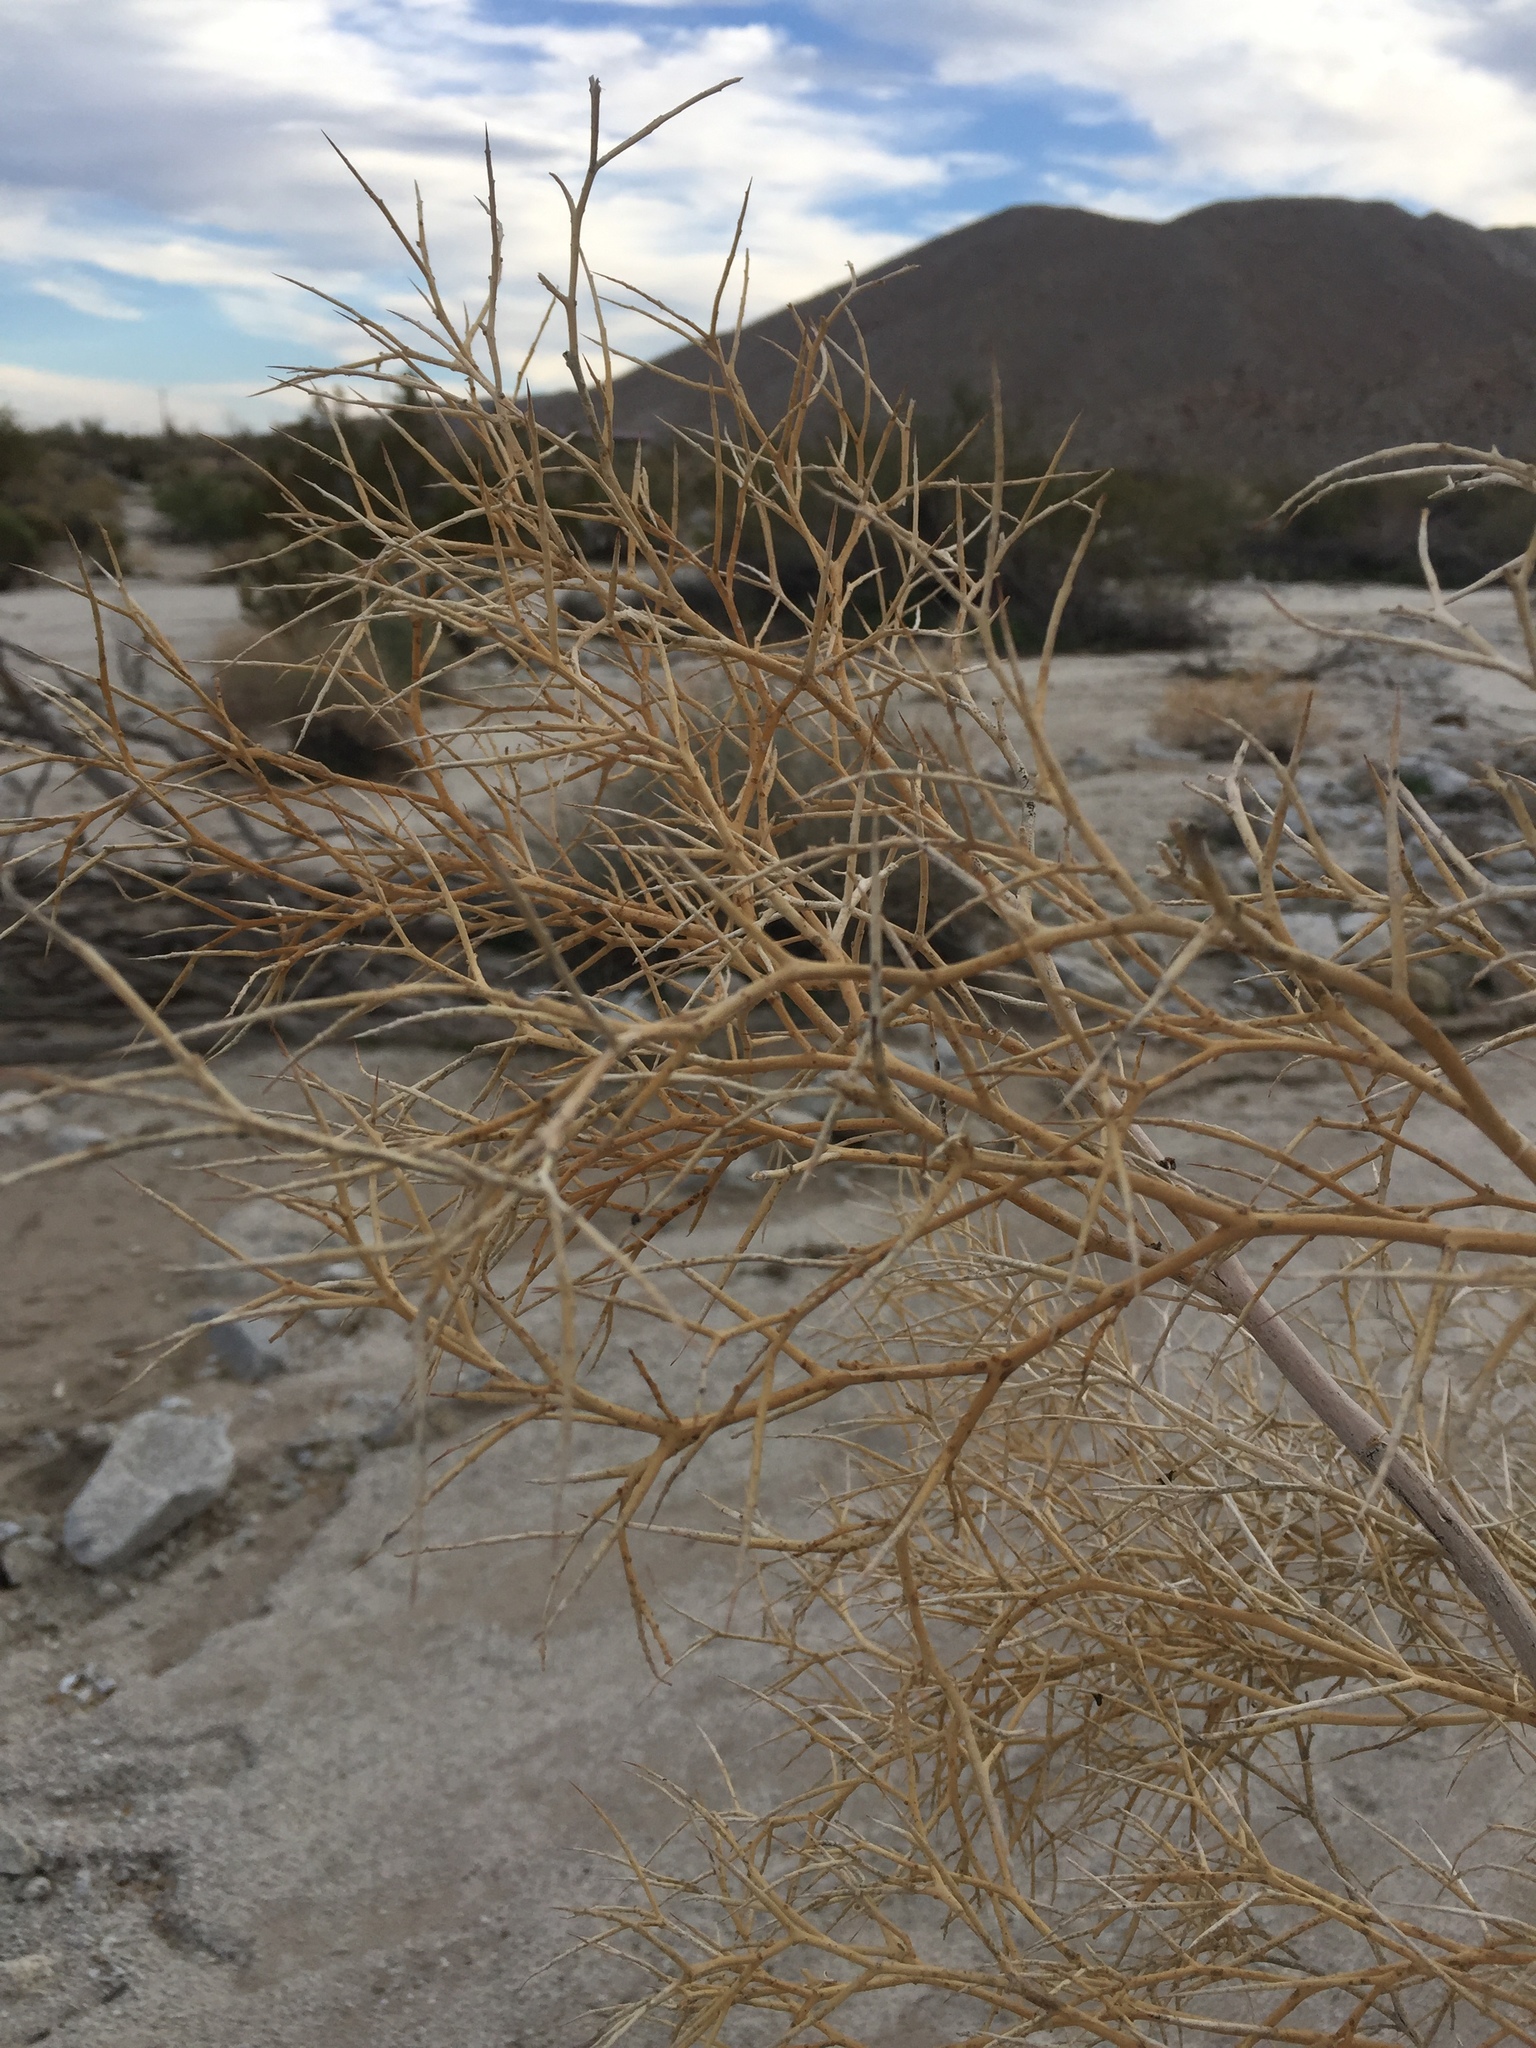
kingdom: Plantae
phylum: Tracheophyta
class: Magnoliopsida
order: Fabales
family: Fabaceae
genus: Psorothamnus
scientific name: Psorothamnus spinosus
